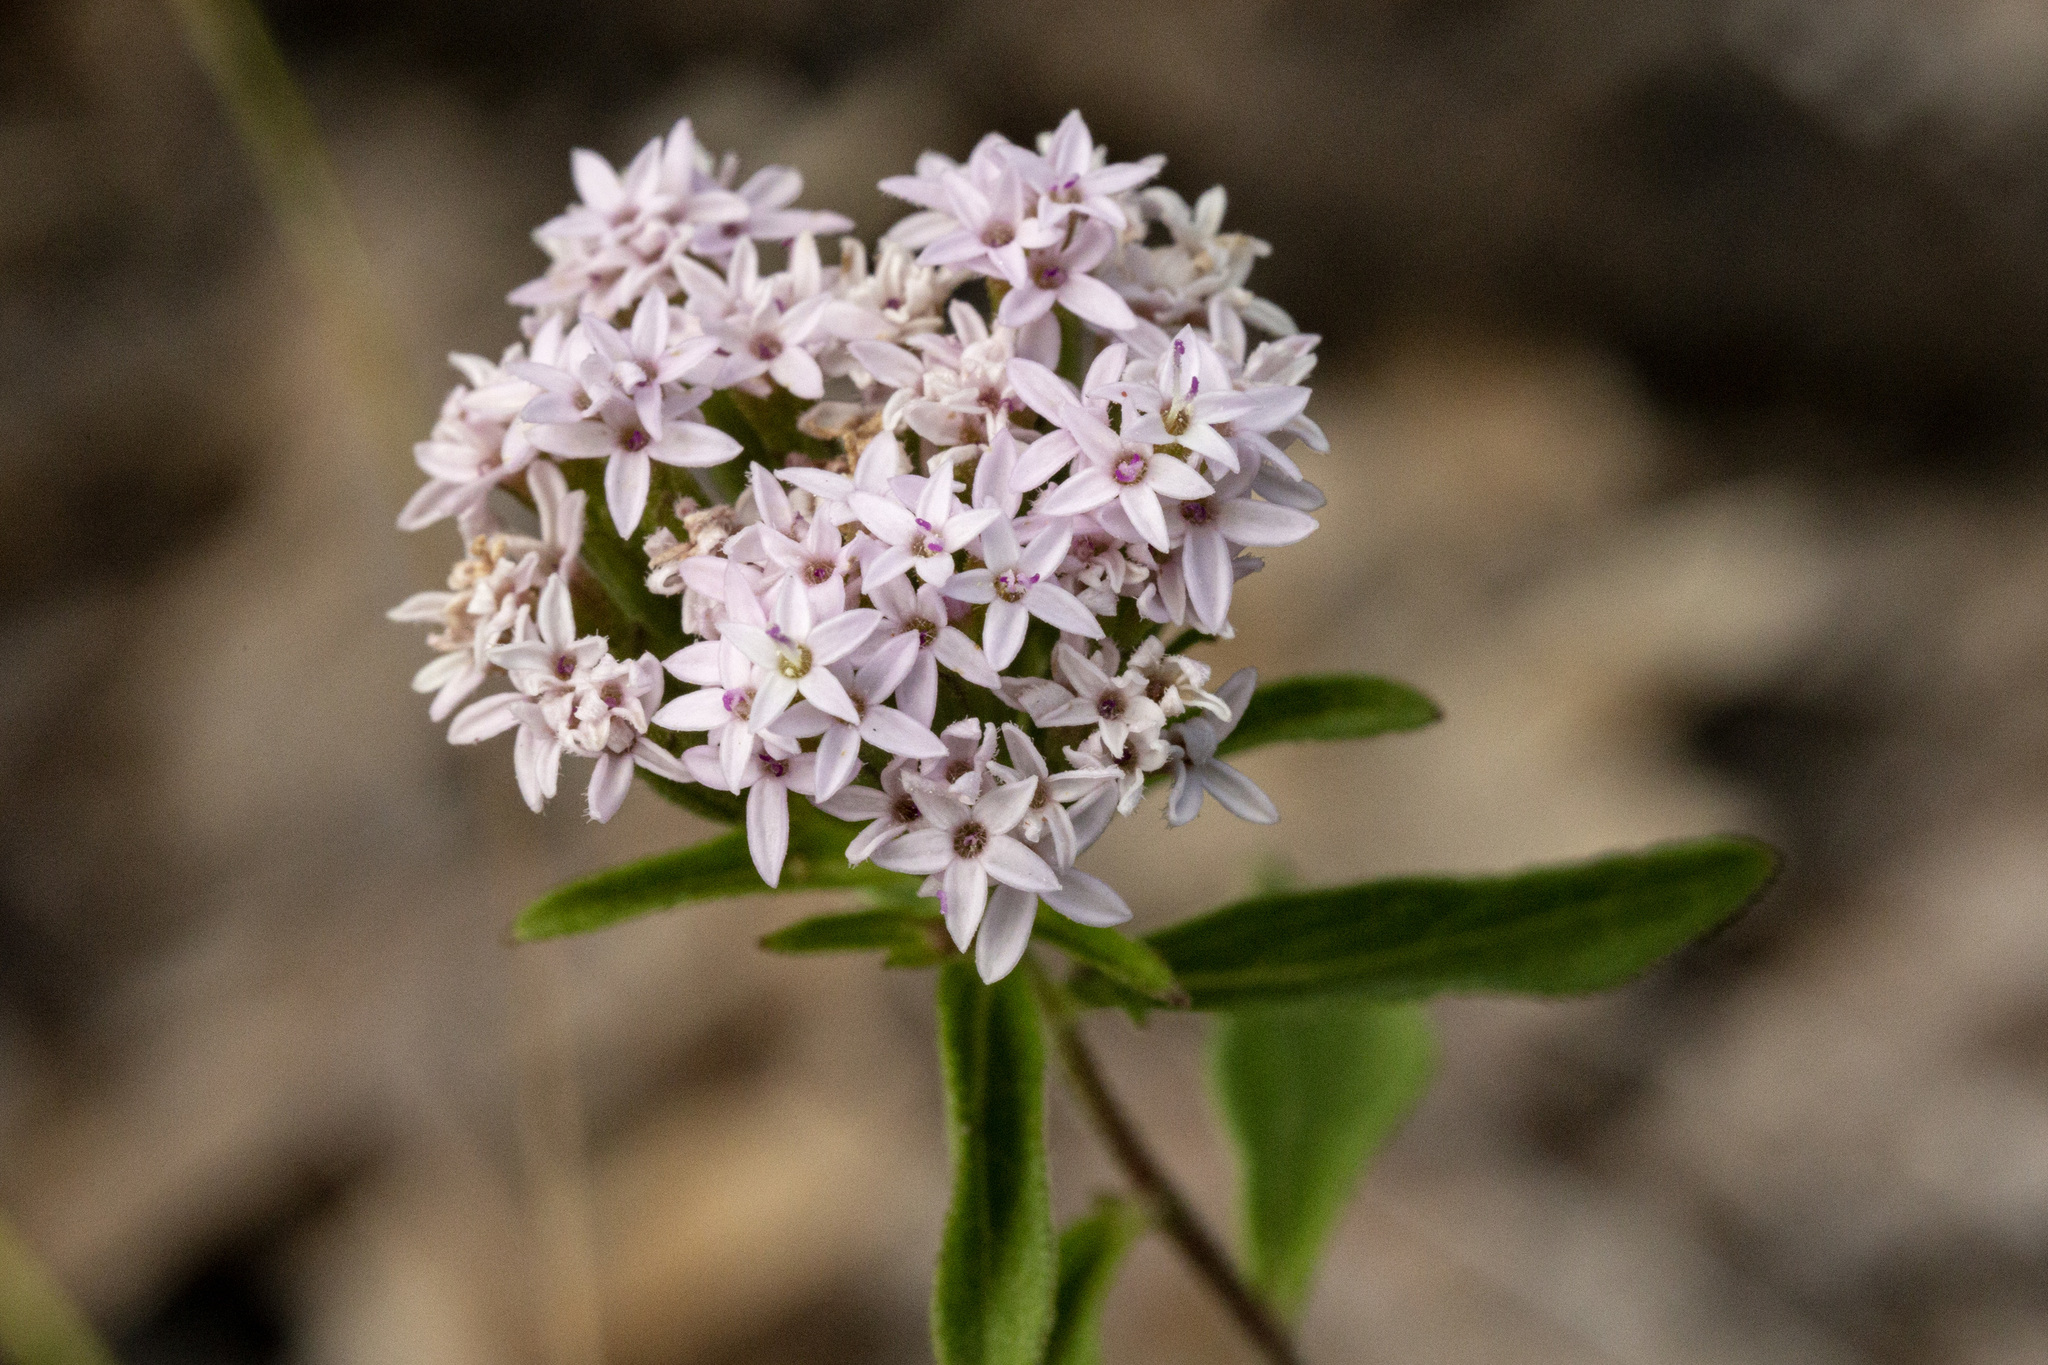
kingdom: Plantae
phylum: Tracheophyta
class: Magnoliopsida
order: Asterales
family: Asteraceae
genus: Stevia
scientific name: Stevia plummerae
